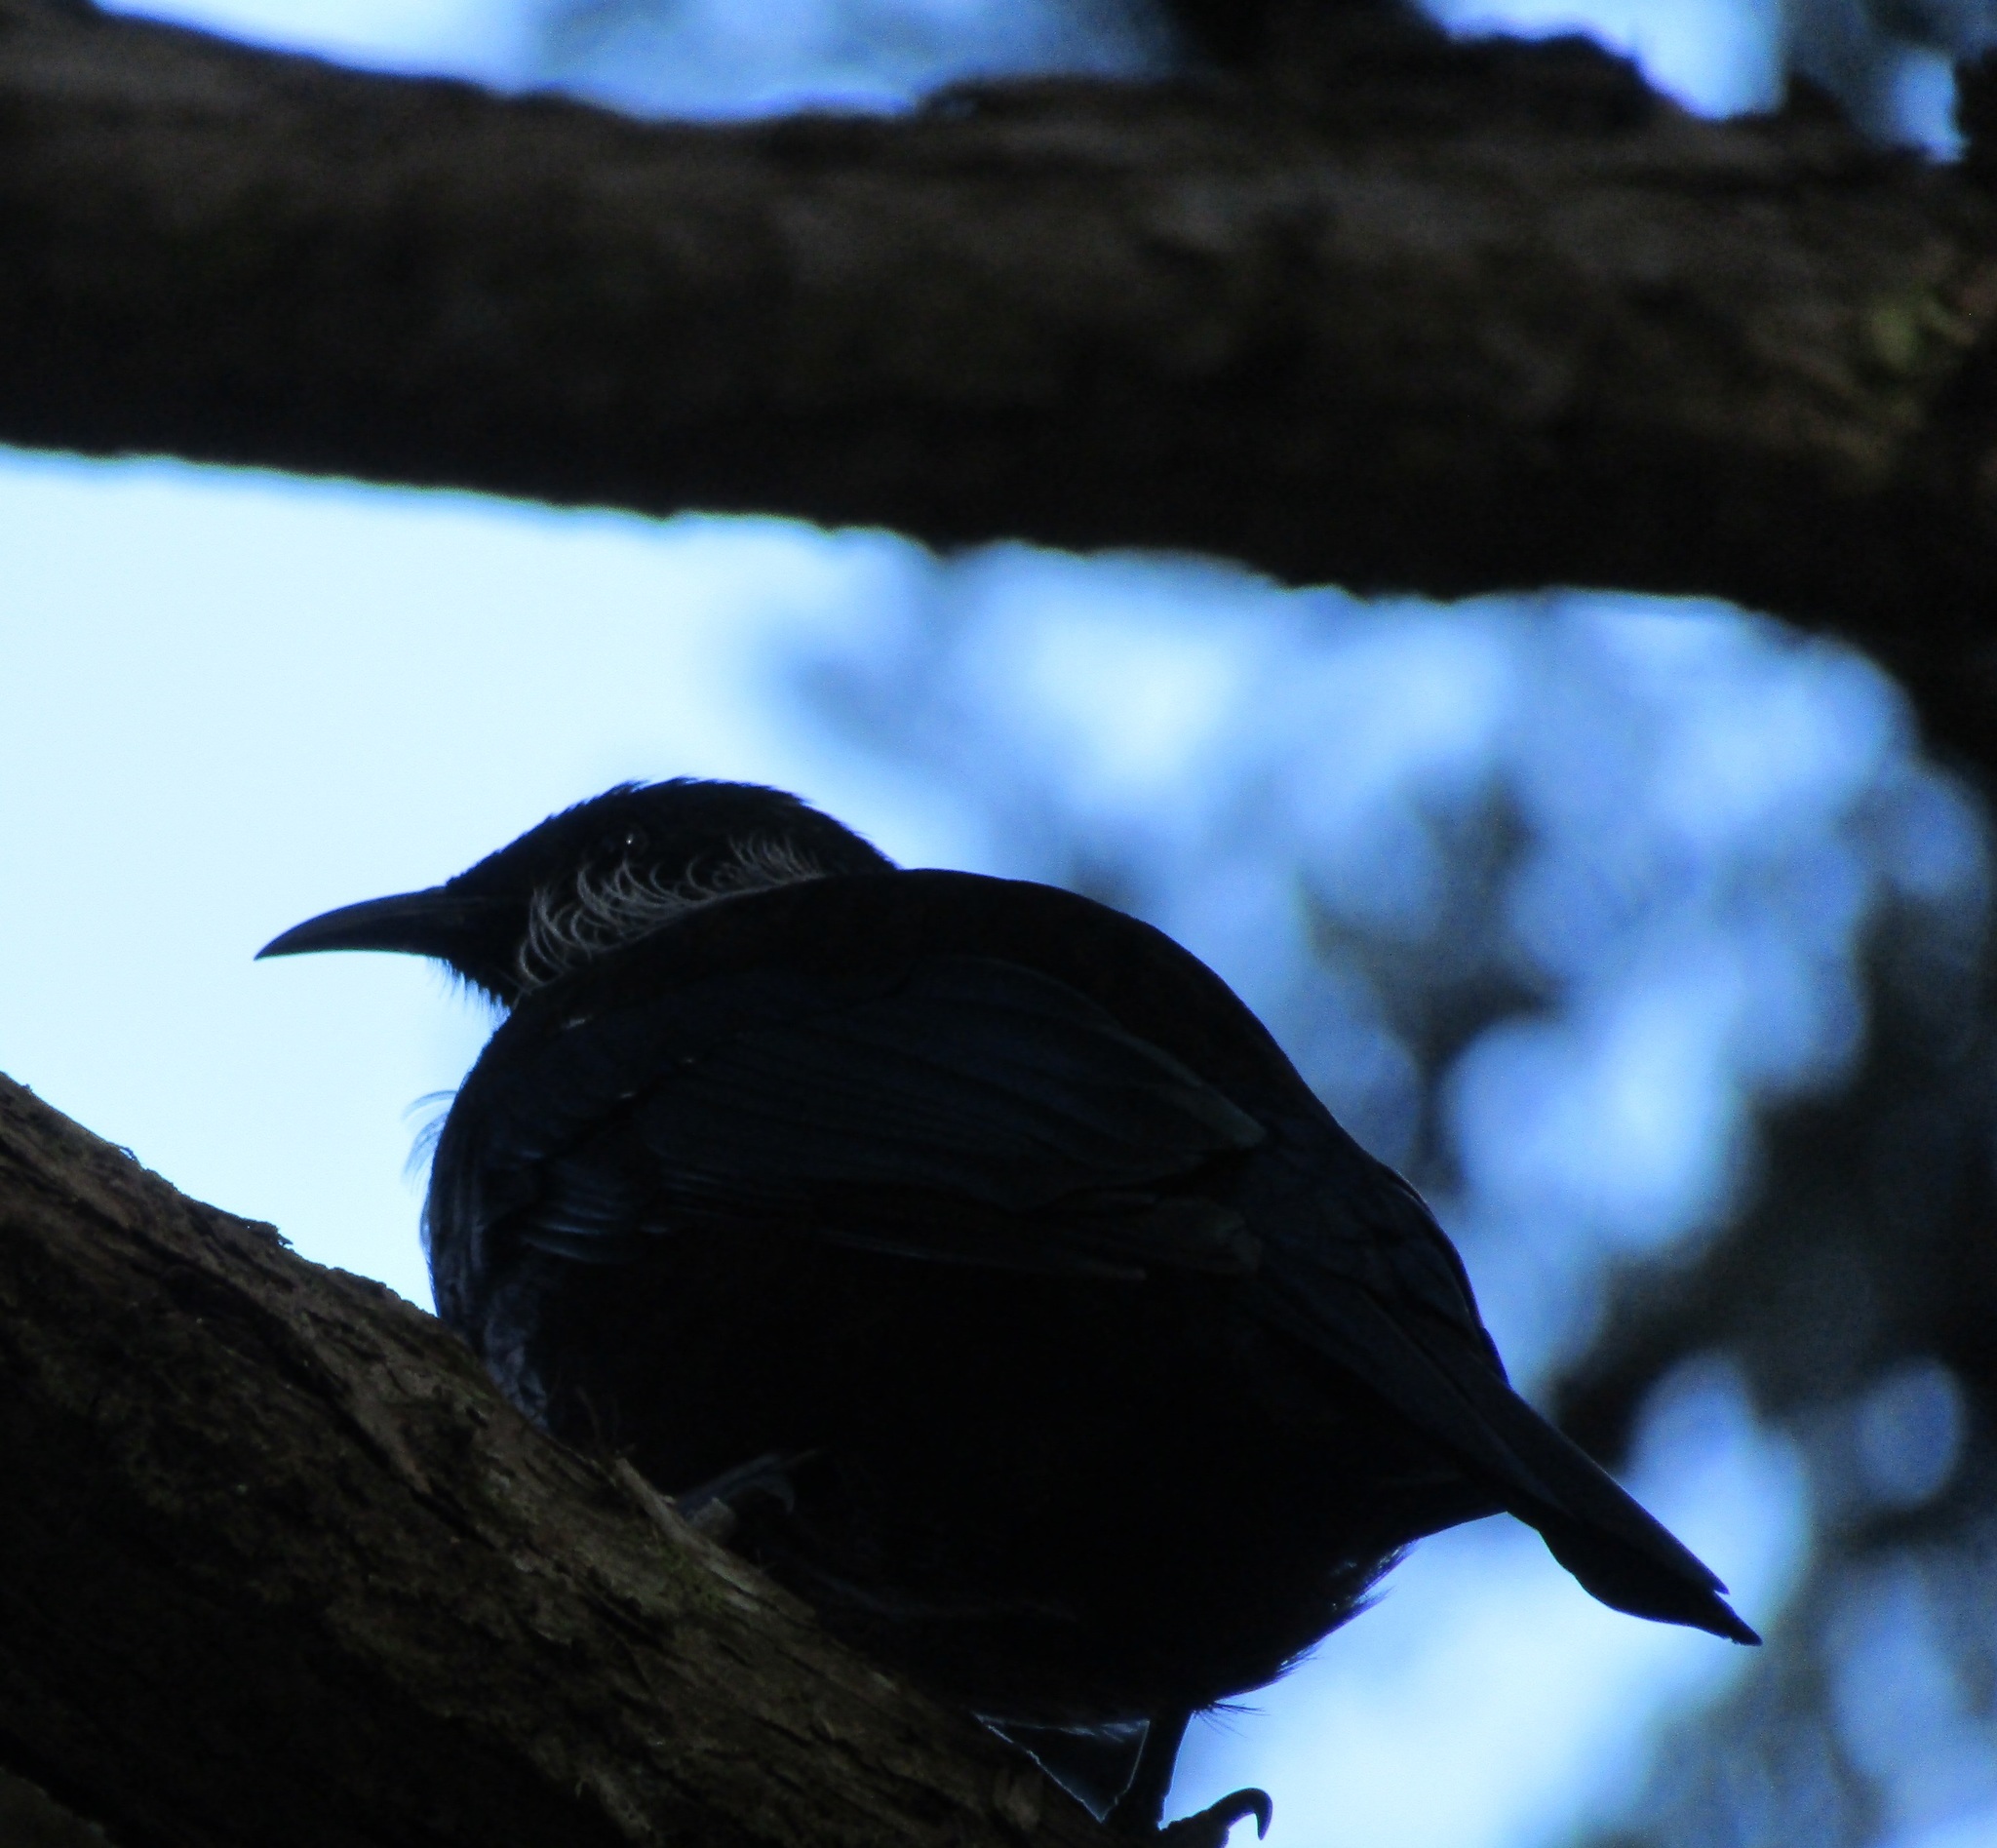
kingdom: Animalia
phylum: Chordata
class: Aves
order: Passeriformes
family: Meliphagidae
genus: Prosthemadera
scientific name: Prosthemadera novaeseelandiae
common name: Tui
